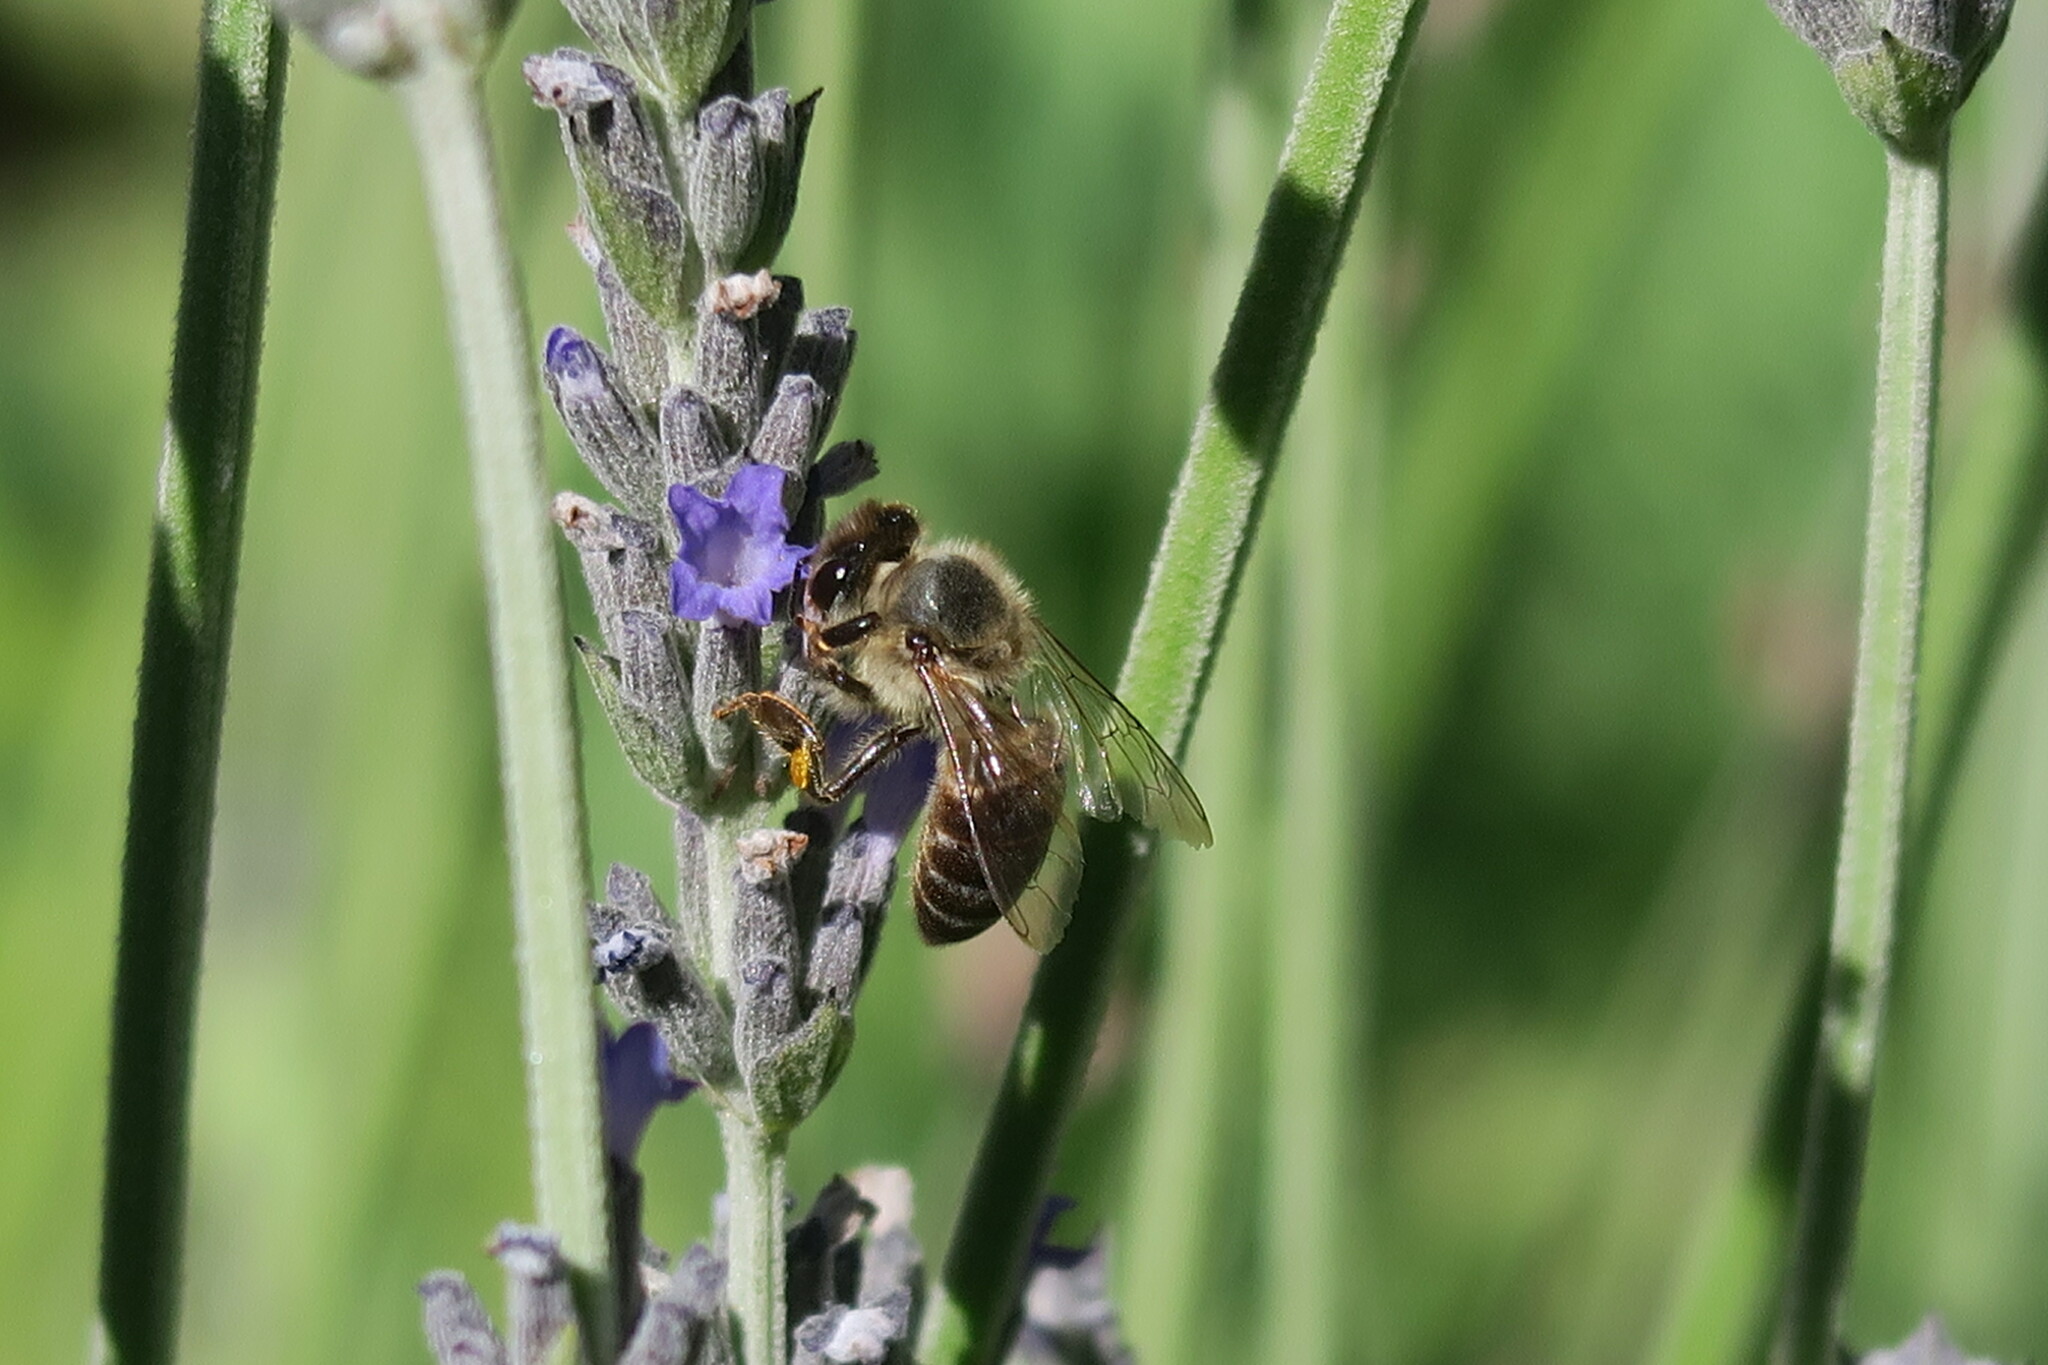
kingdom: Animalia
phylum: Arthropoda
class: Insecta
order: Hymenoptera
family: Apidae
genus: Apis
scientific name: Apis mellifera
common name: Honey bee
